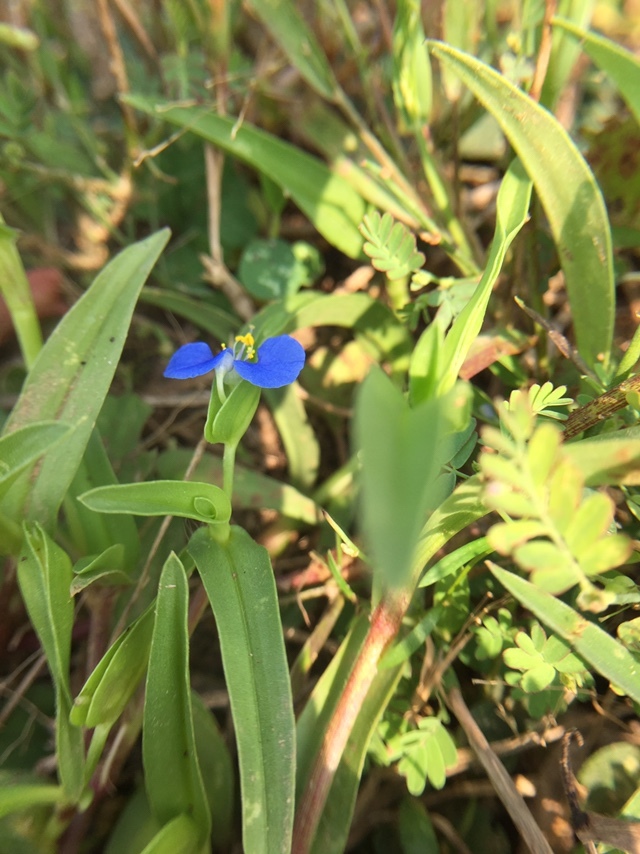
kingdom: Plantae
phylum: Tracheophyta
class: Liliopsida
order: Commelinales
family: Commelinaceae
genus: Commelina
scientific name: Commelina attenuata
